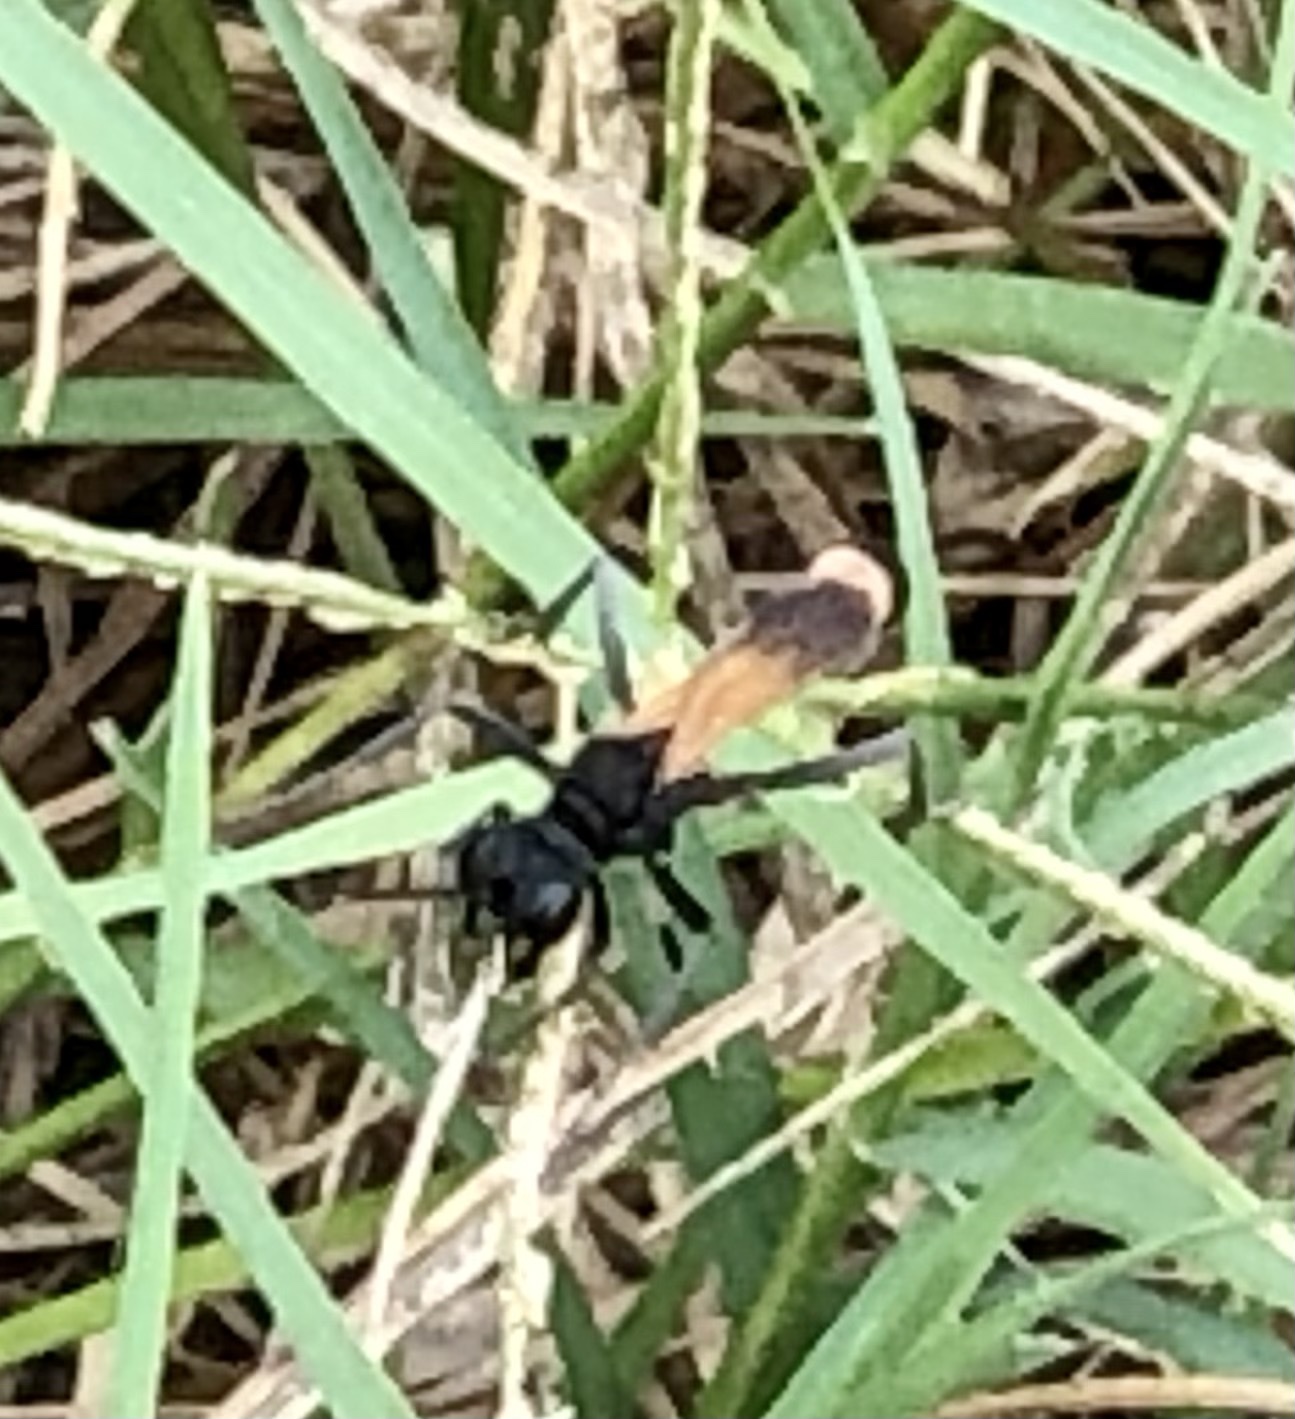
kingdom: Animalia
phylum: Arthropoda
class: Insecta
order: Hymenoptera
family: Sphecidae
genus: Ammophila
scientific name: Ammophila
